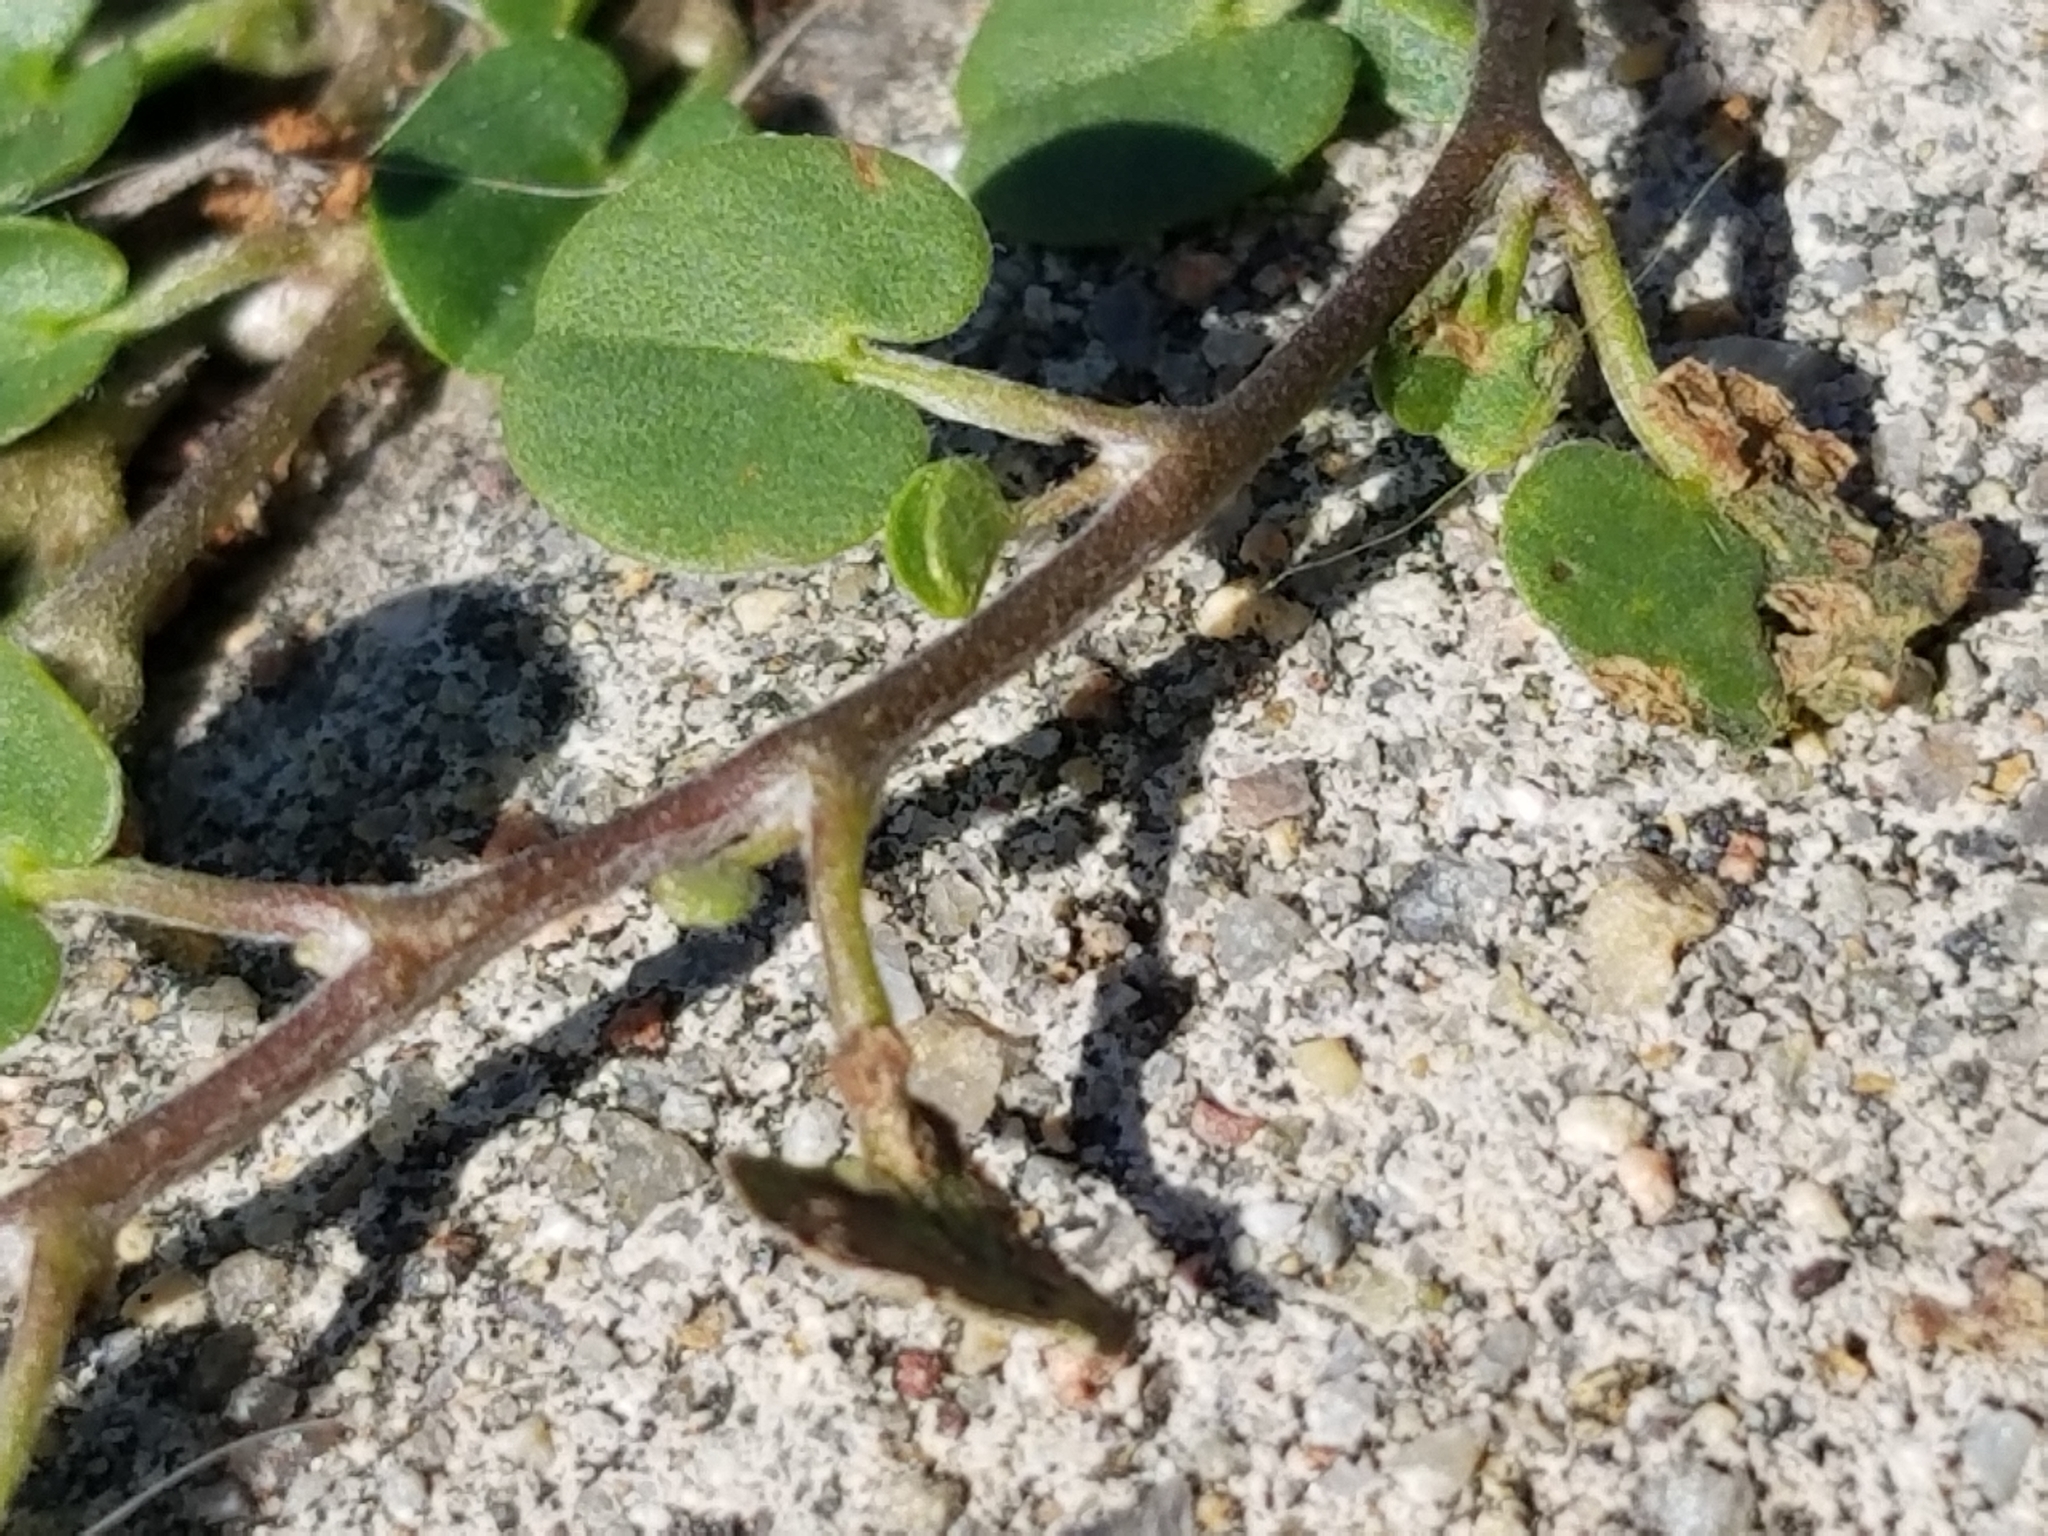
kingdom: Plantae
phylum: Tracheophyta
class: Magnoliopsida
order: Solanales
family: Convolvulaceae
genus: Dichondra
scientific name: Dichondra micrantha
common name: Kidneyweed
